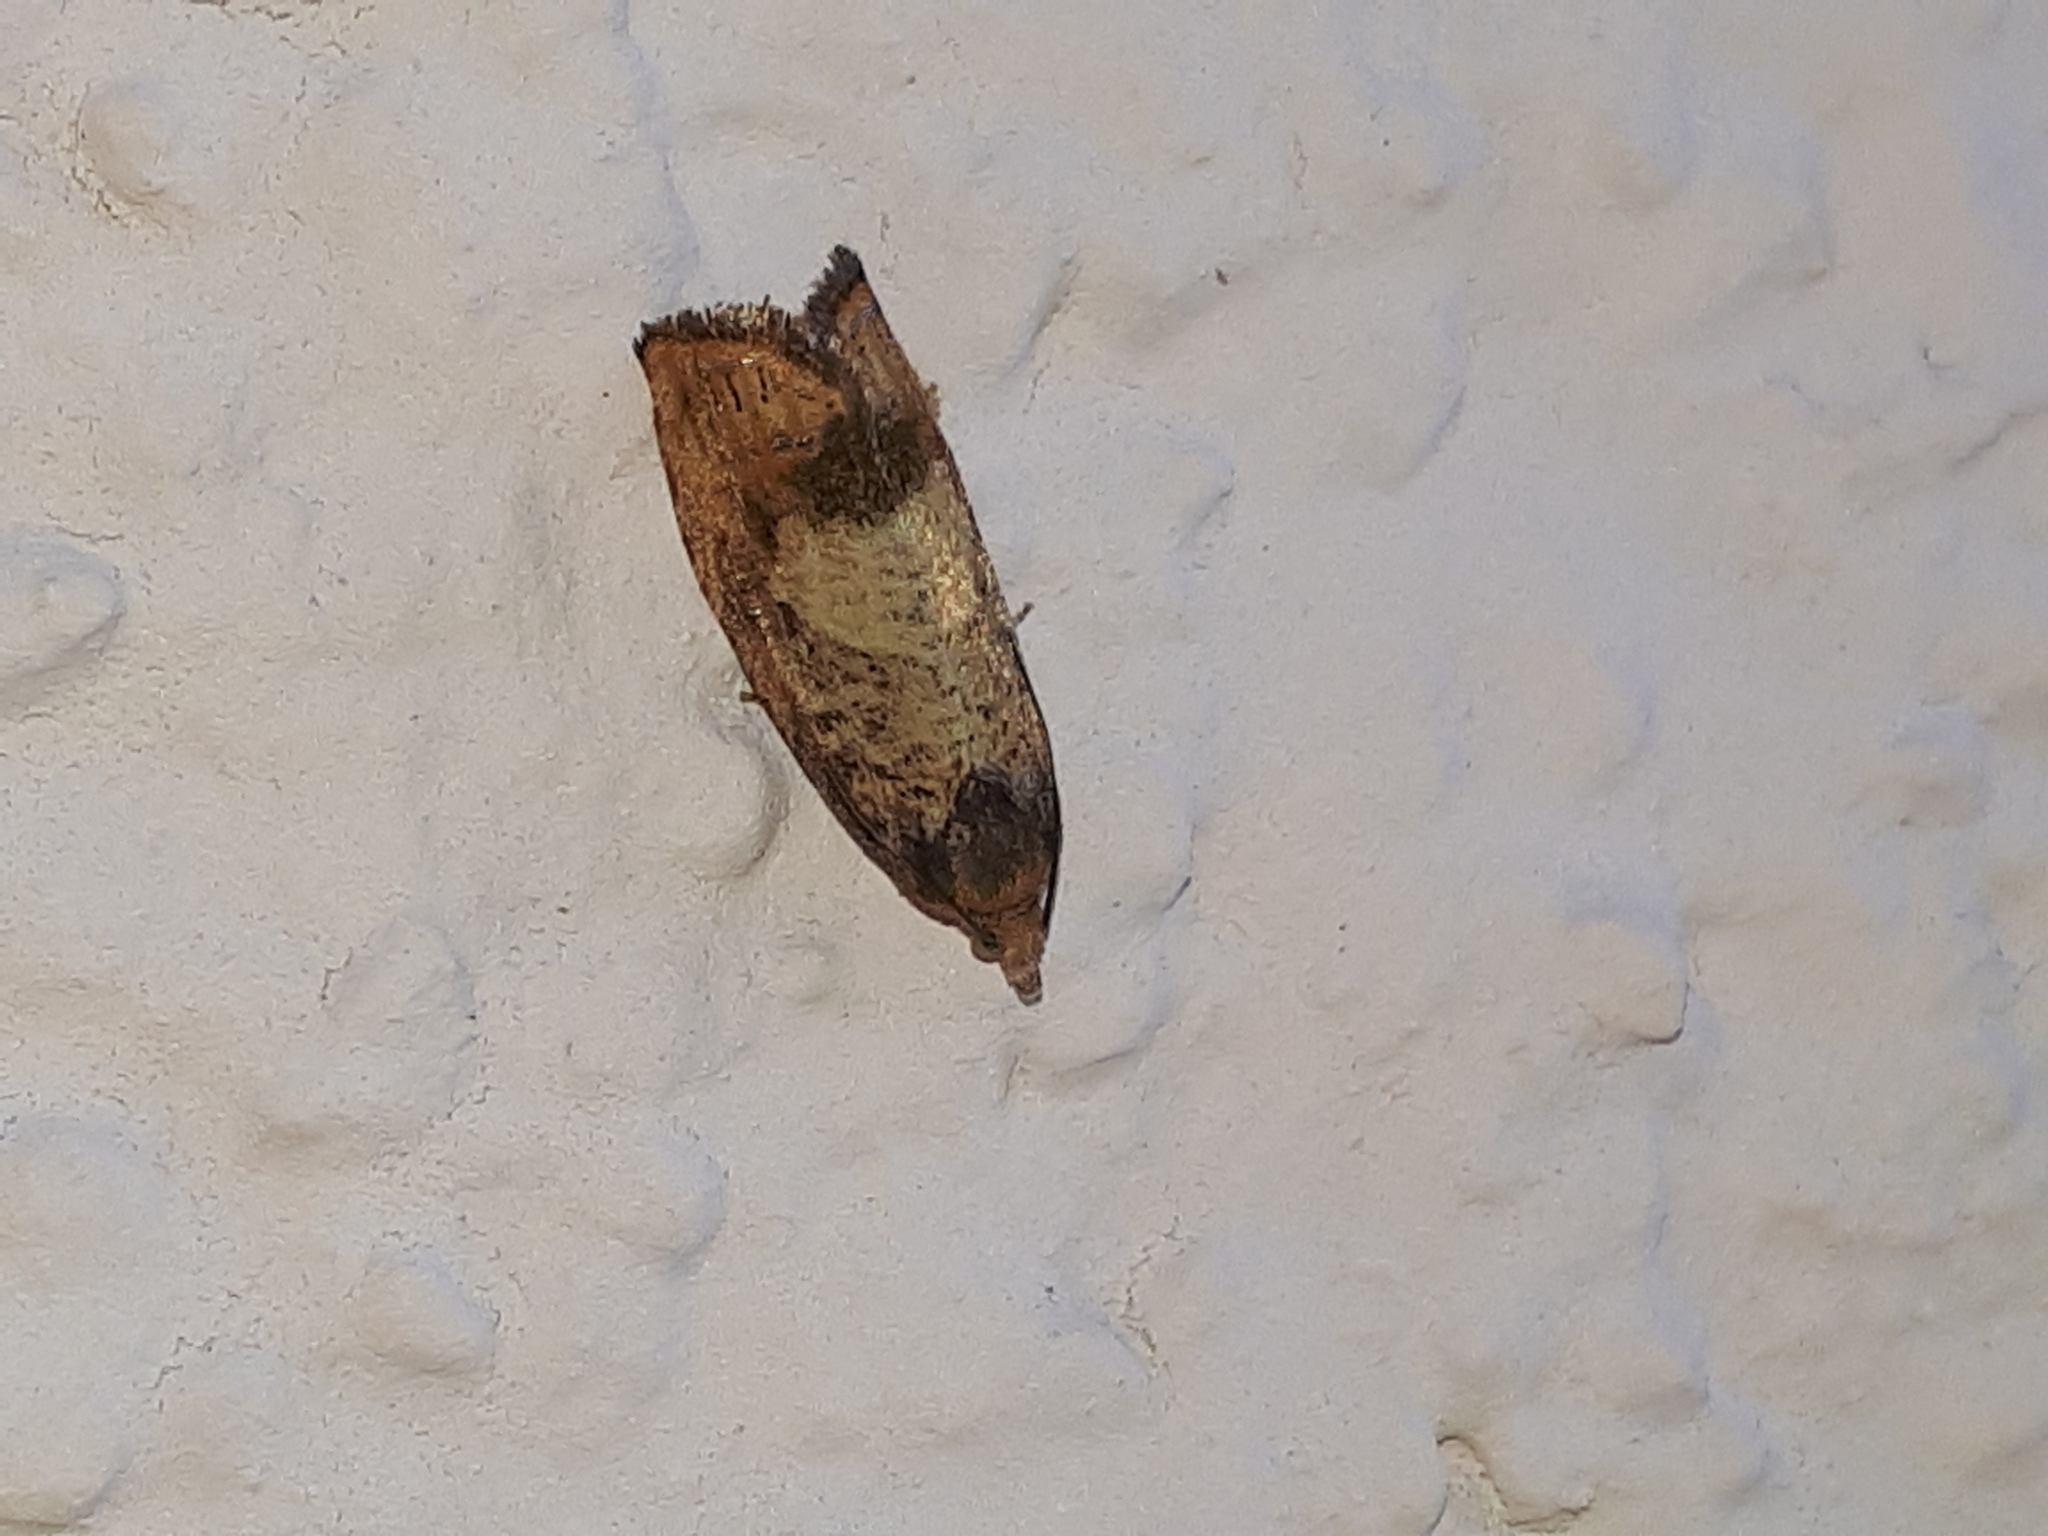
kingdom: Animalia
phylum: Arthropoda
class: Insecta
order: Lepidoptera
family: Tortricidae
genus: Cydia
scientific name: Cydia amplana
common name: Vagrant piercer
